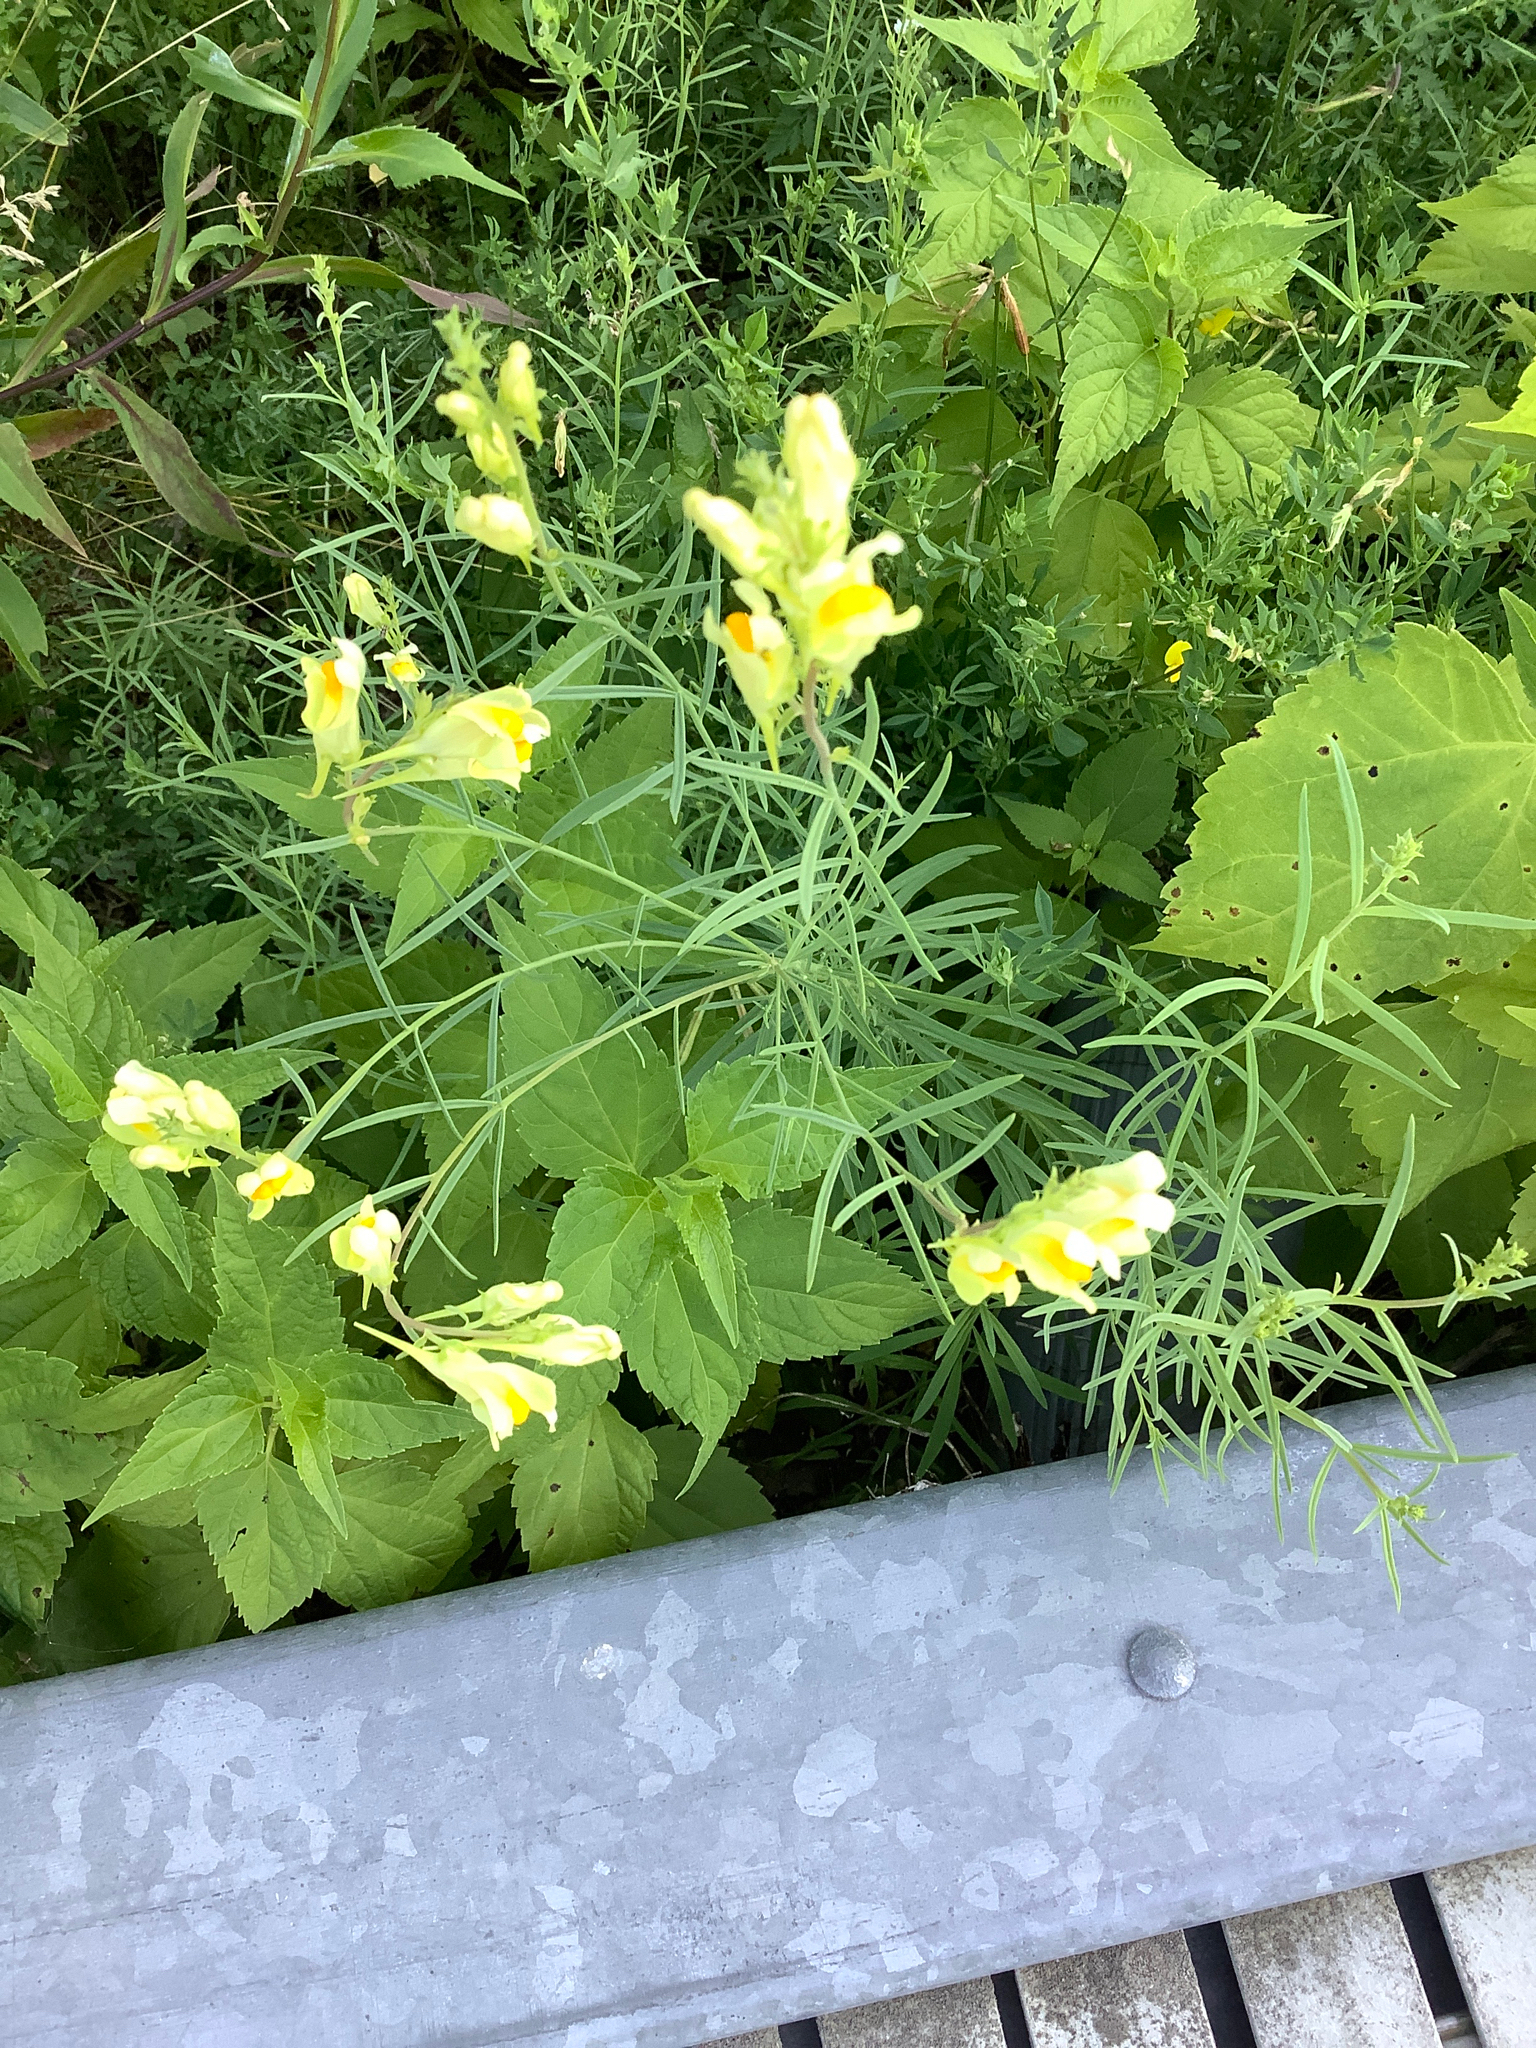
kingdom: Plantae
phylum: Tracheophyta
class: Magnoliopsida
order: Lamiales
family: Plantaginaceae
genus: Linaria
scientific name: Linaria vulgaris
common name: Butter and eggs
